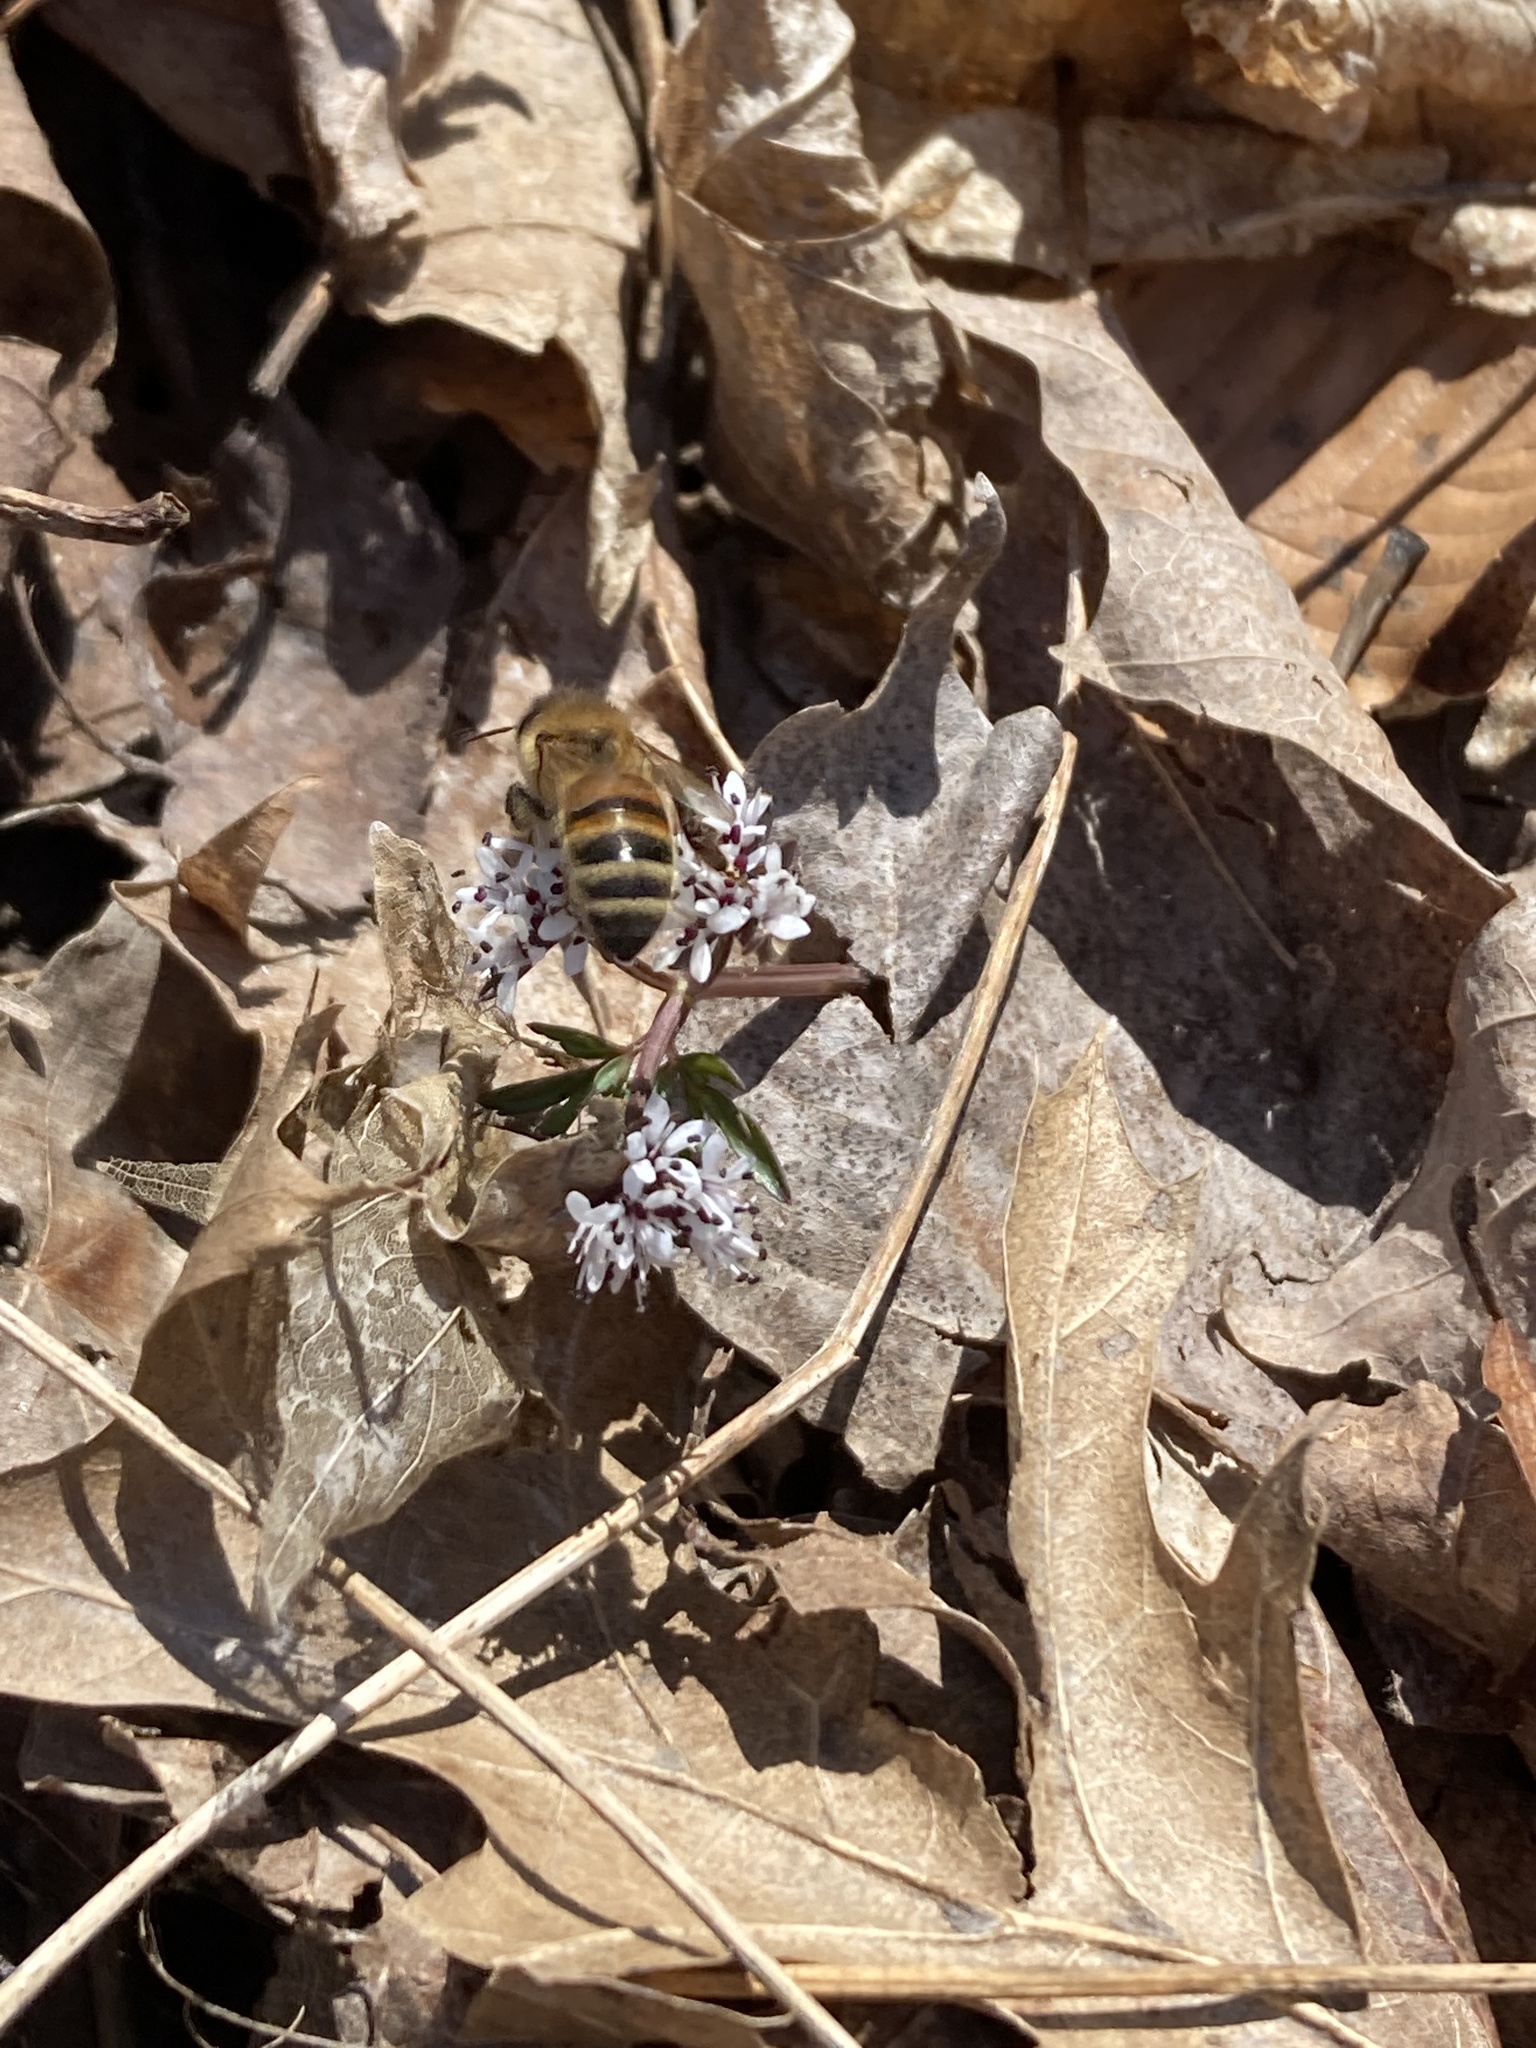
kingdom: Animalia
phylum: Arthropoda
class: Insecta
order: Hymenoptera
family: Apidae
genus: Apis
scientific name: Apis mellifera
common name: Honey bee
